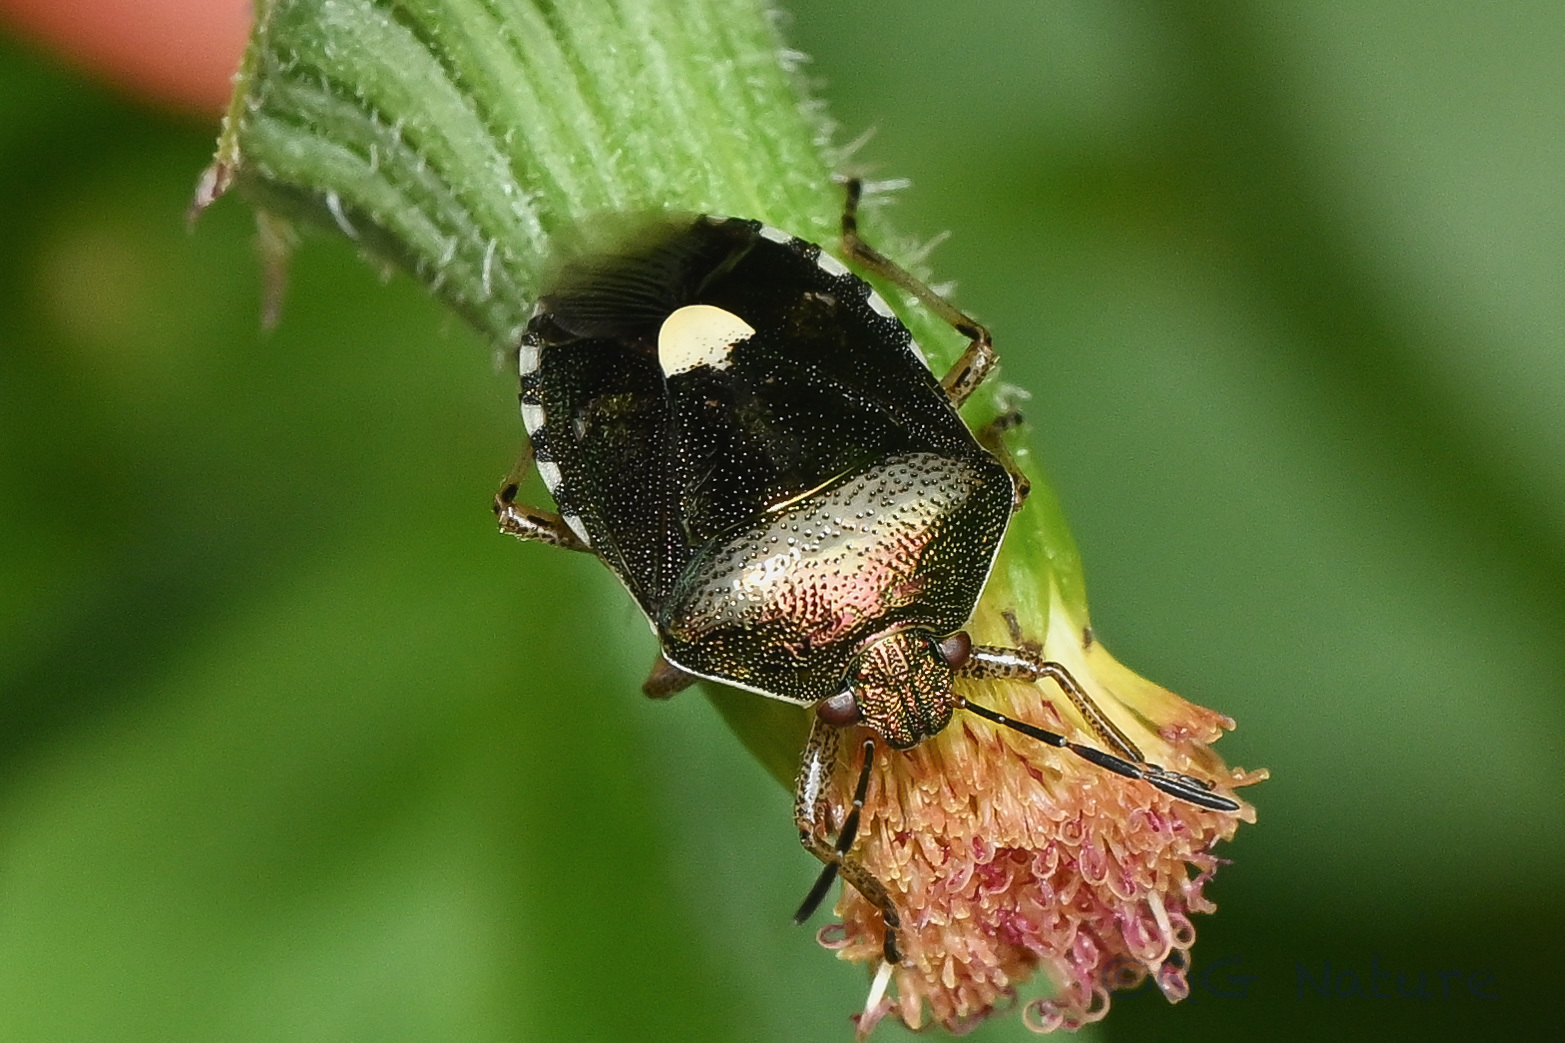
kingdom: Animalia
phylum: Arthropoda
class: Insecta
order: Hemiptera
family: Pentatomidae
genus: Menida
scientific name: Menida violacea
